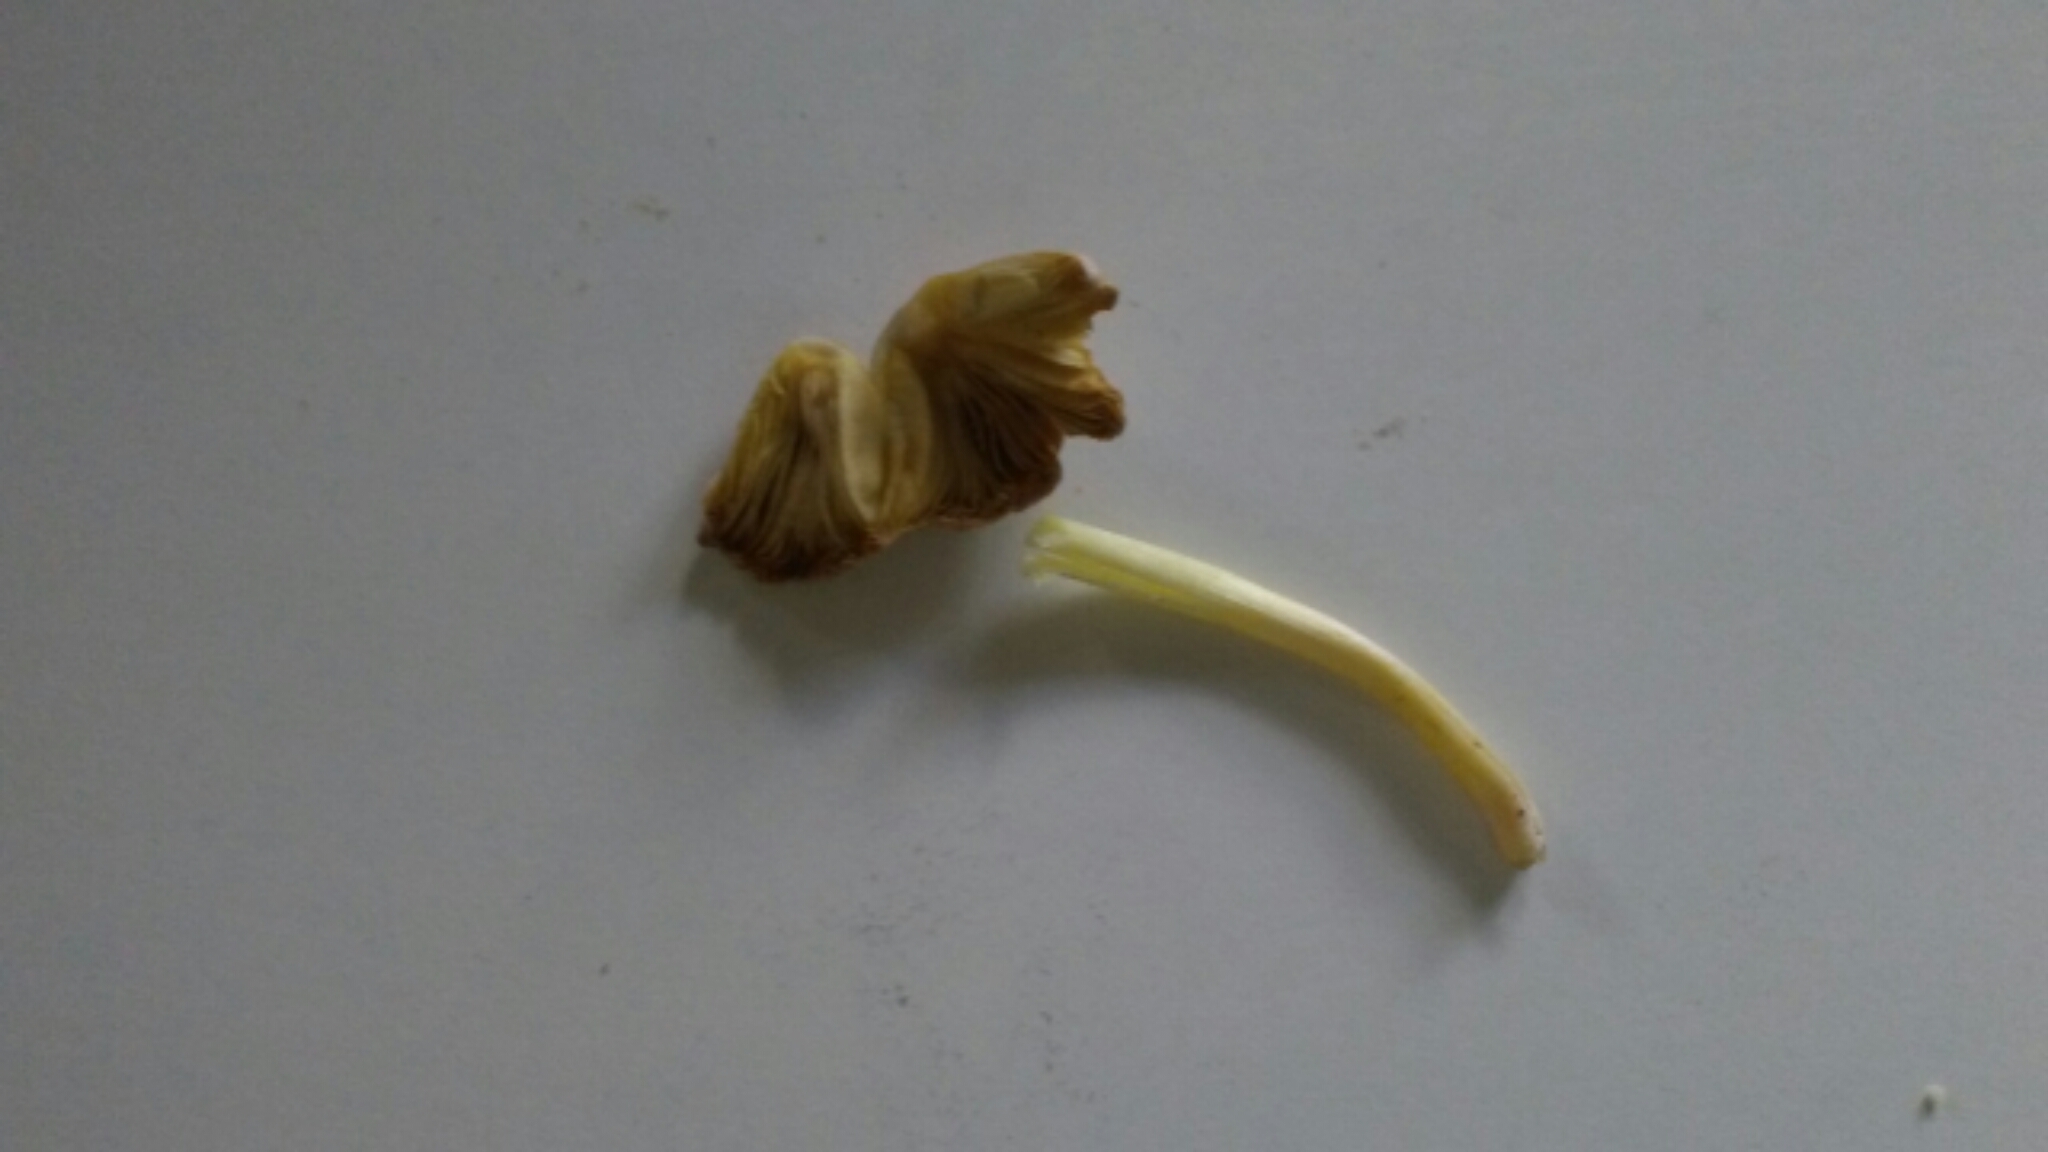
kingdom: Fungi
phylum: Basidiomycota
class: Agaricomycetes
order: Agaricales
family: Bolbitiaceae
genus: Bolbitius
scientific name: Bolbitius titubans
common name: Yellow fieldcap
